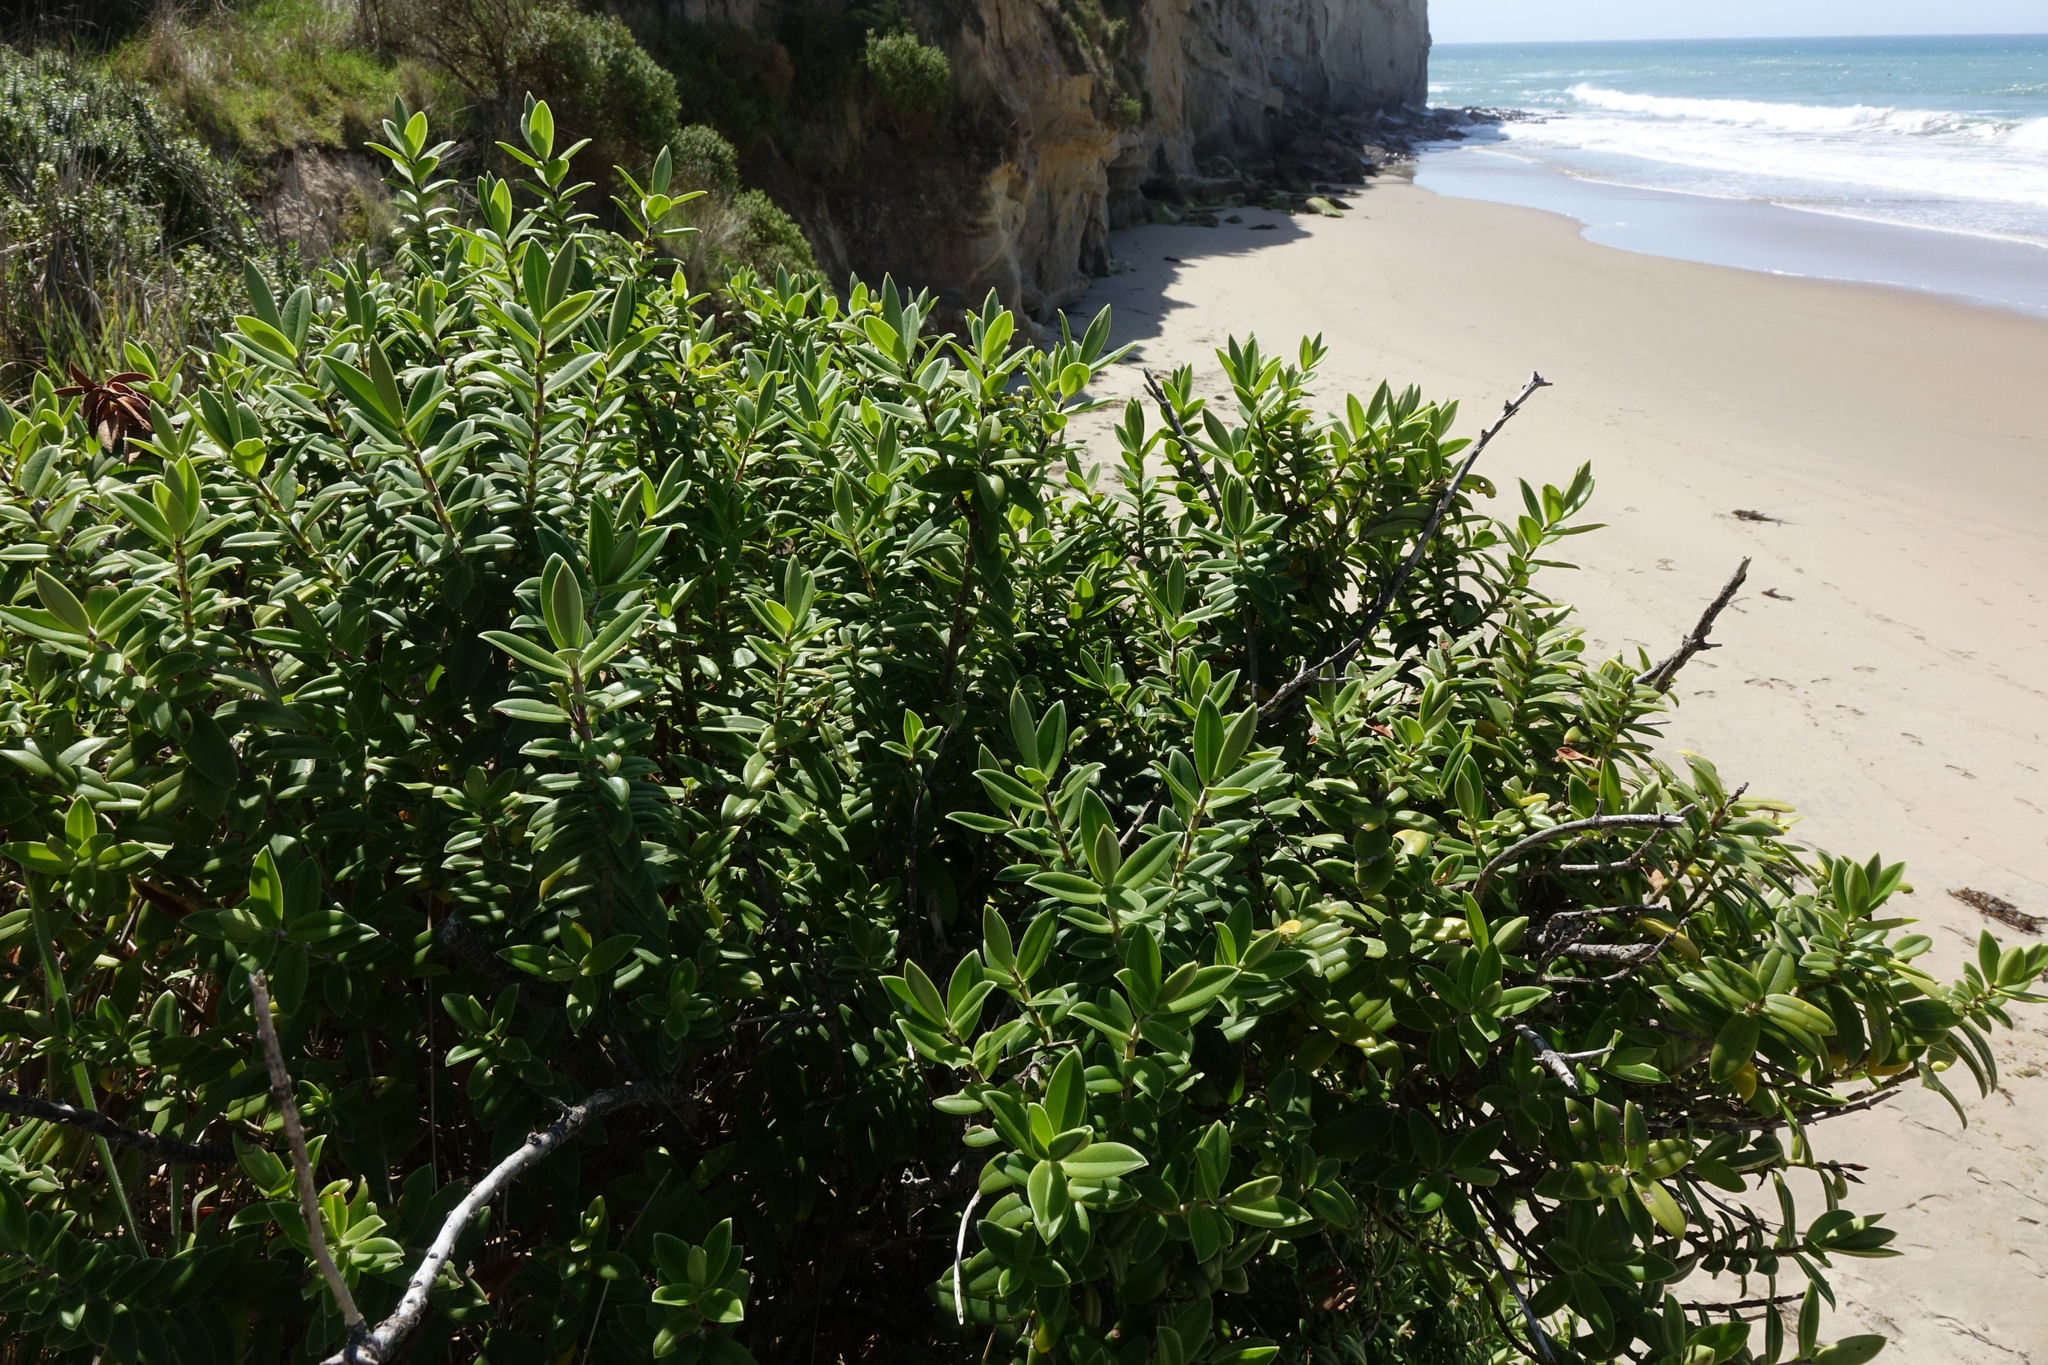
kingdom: Plantae
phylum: Tracheophyta
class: Magnoliopsida
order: Lamiales
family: Plantaginaceae
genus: Veronica
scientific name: Veronica elliptica
